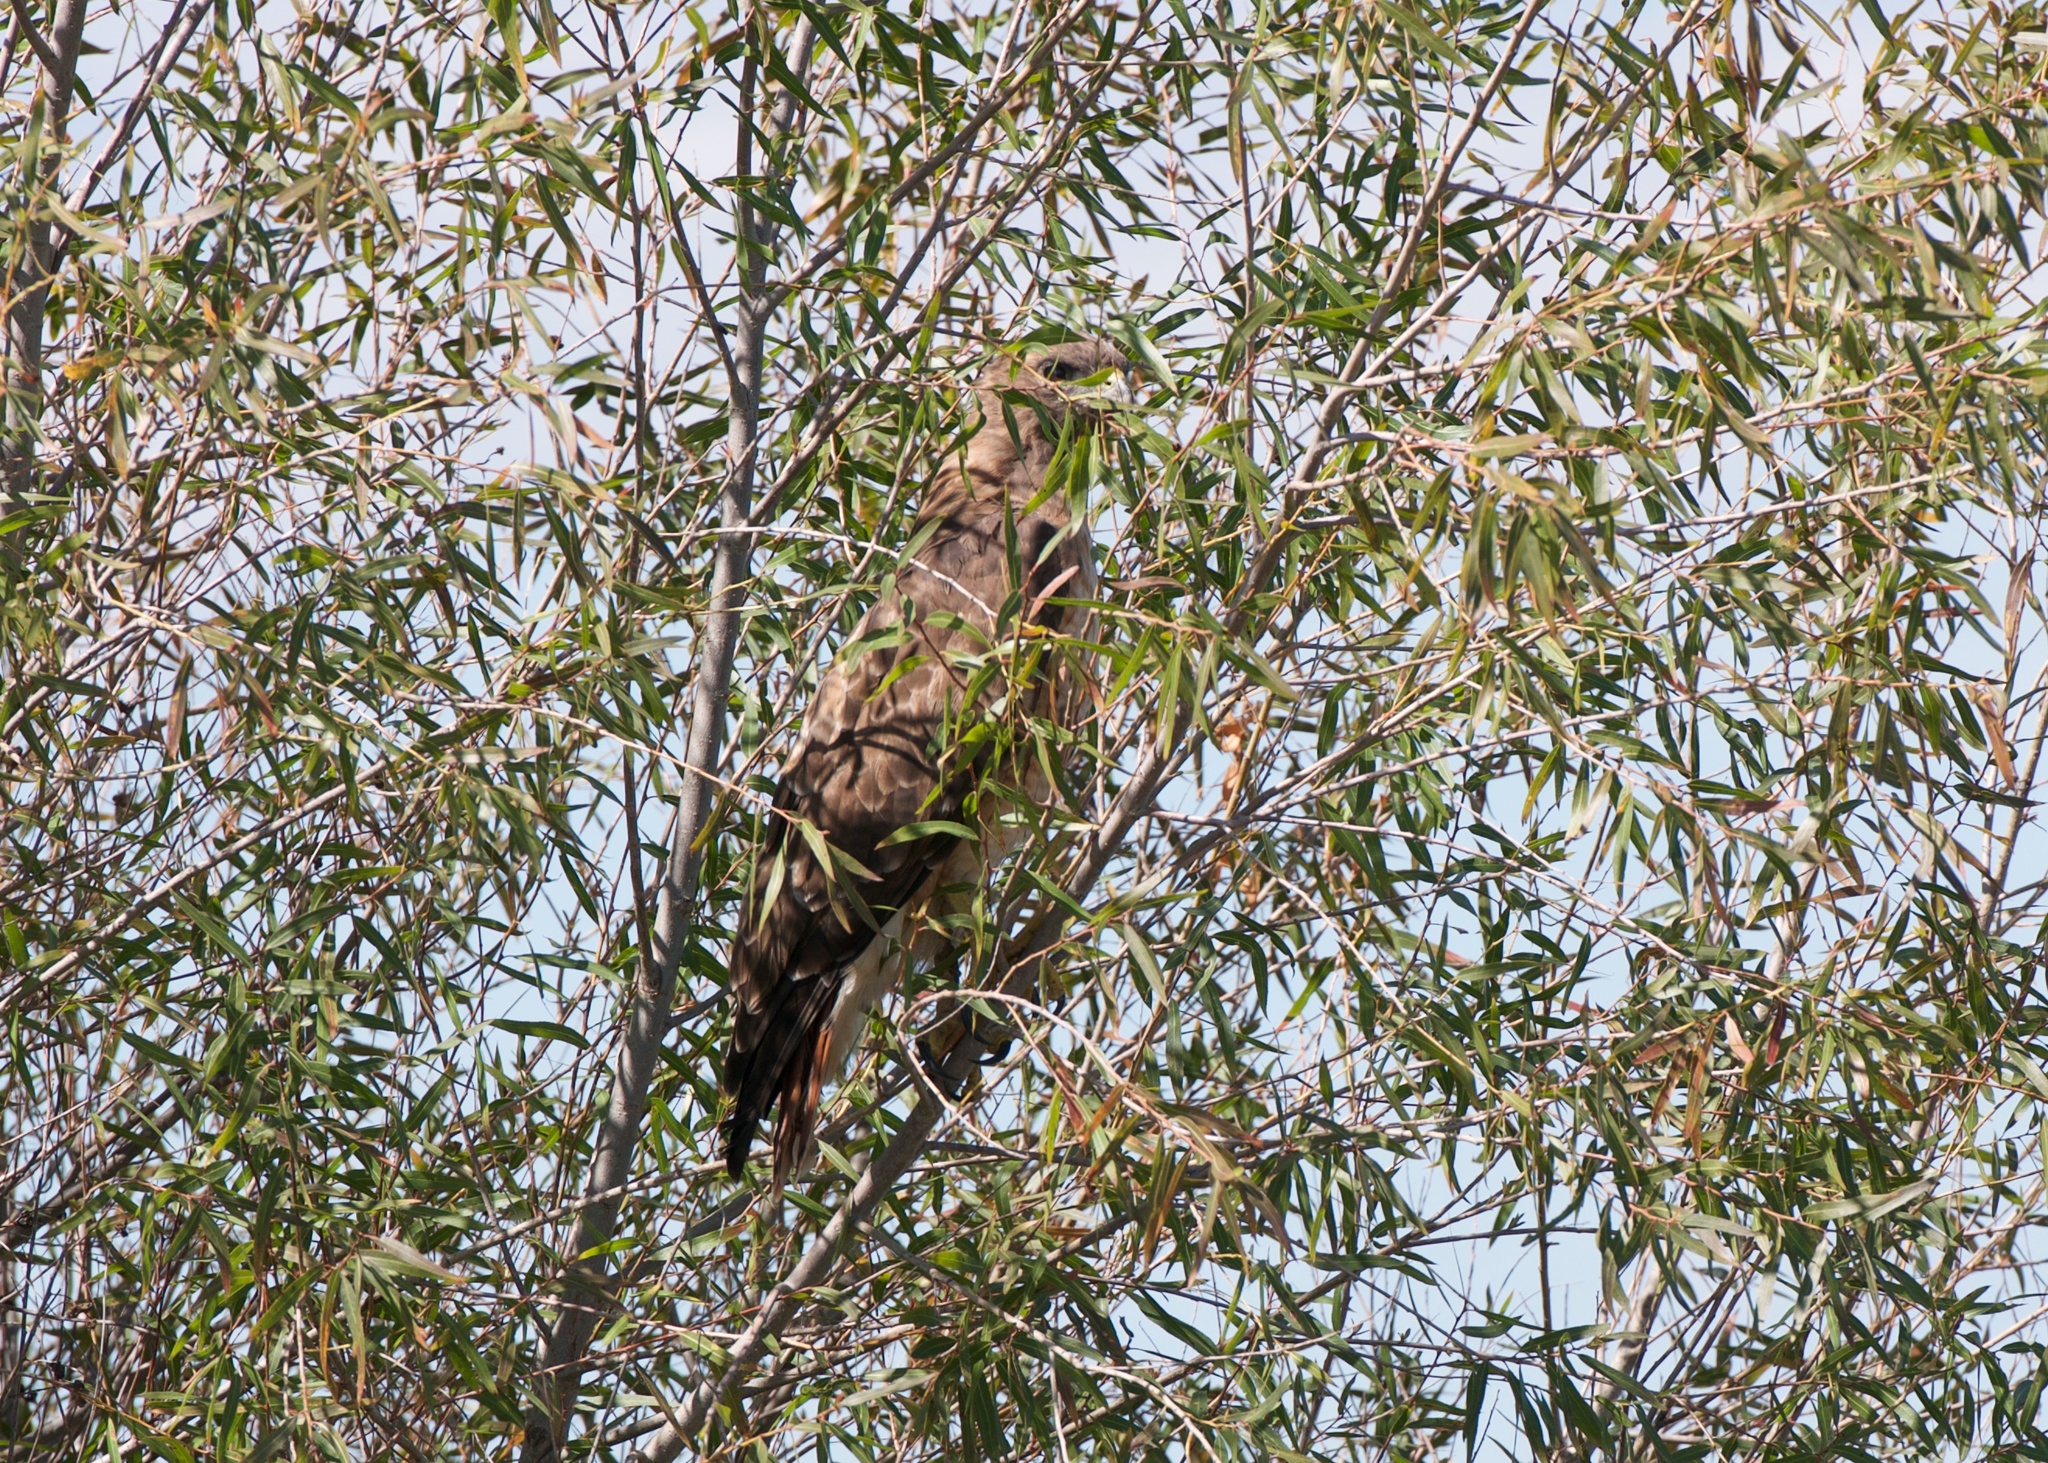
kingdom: Animalia
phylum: Chordata
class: Aves
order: Accipitriformes
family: Accipitridae
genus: Buteo
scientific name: Buteo jamaicensis
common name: Red-tailed hawk
